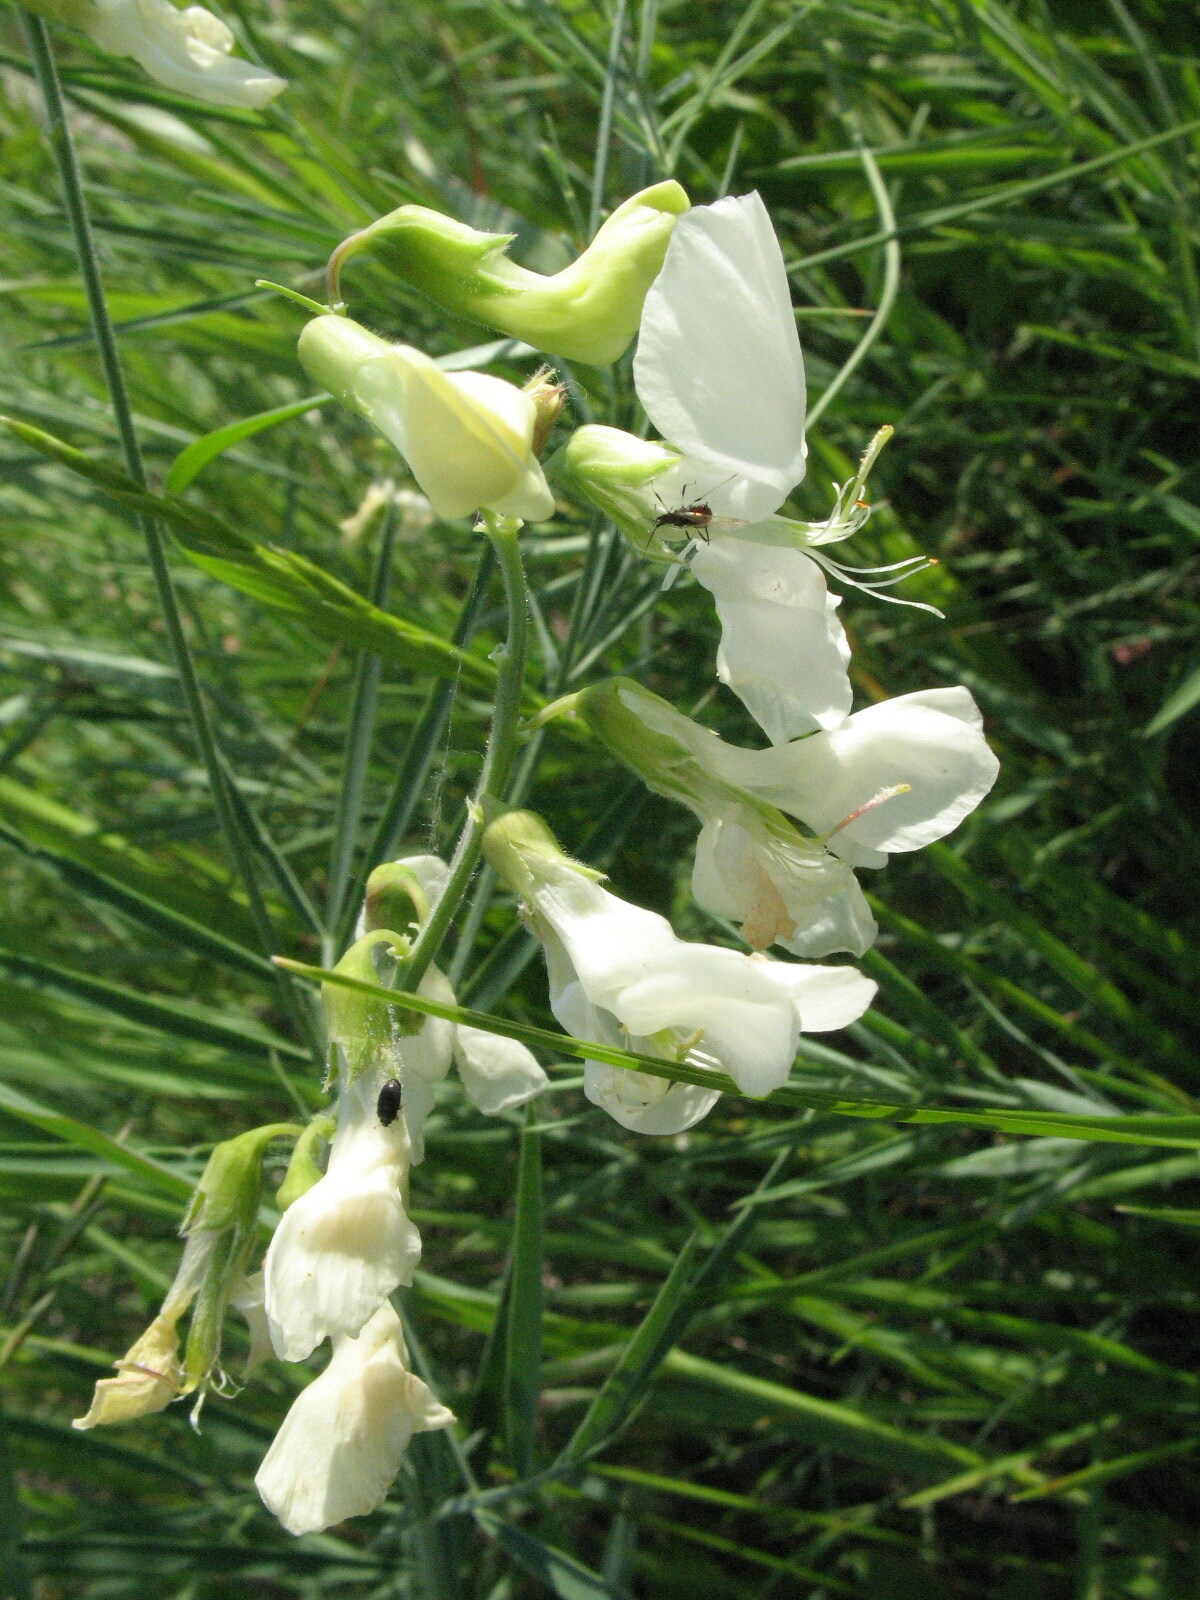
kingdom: Plantae
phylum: Tracheophyta
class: Magnoliopsida
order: Fabales
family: Fabaceae
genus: Lathyrus
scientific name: Lathyrus pallescens
